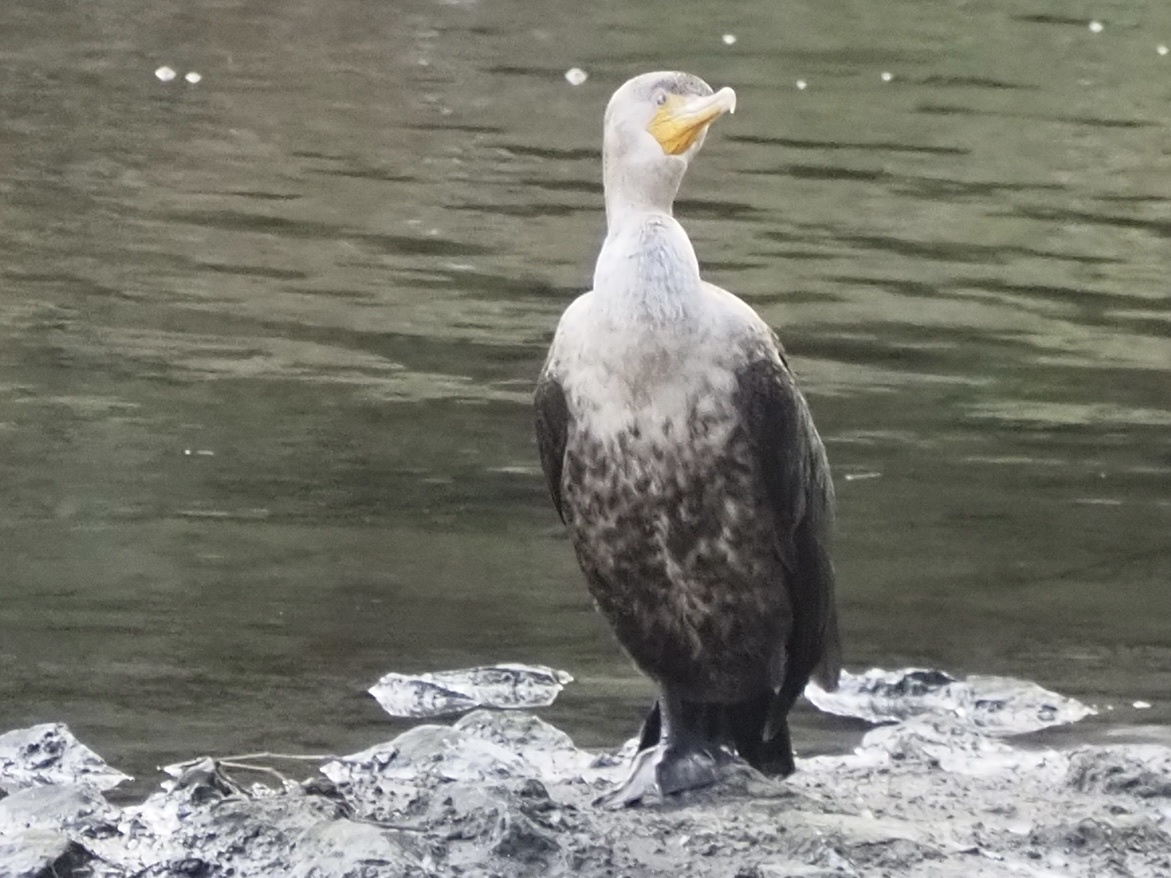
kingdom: Animalia
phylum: Chordata
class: Aves
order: Suliformes
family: Phalacrocoracidae
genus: Phalacrocorax
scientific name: Phalacrocorax auritus
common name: Double-crested cormorant
